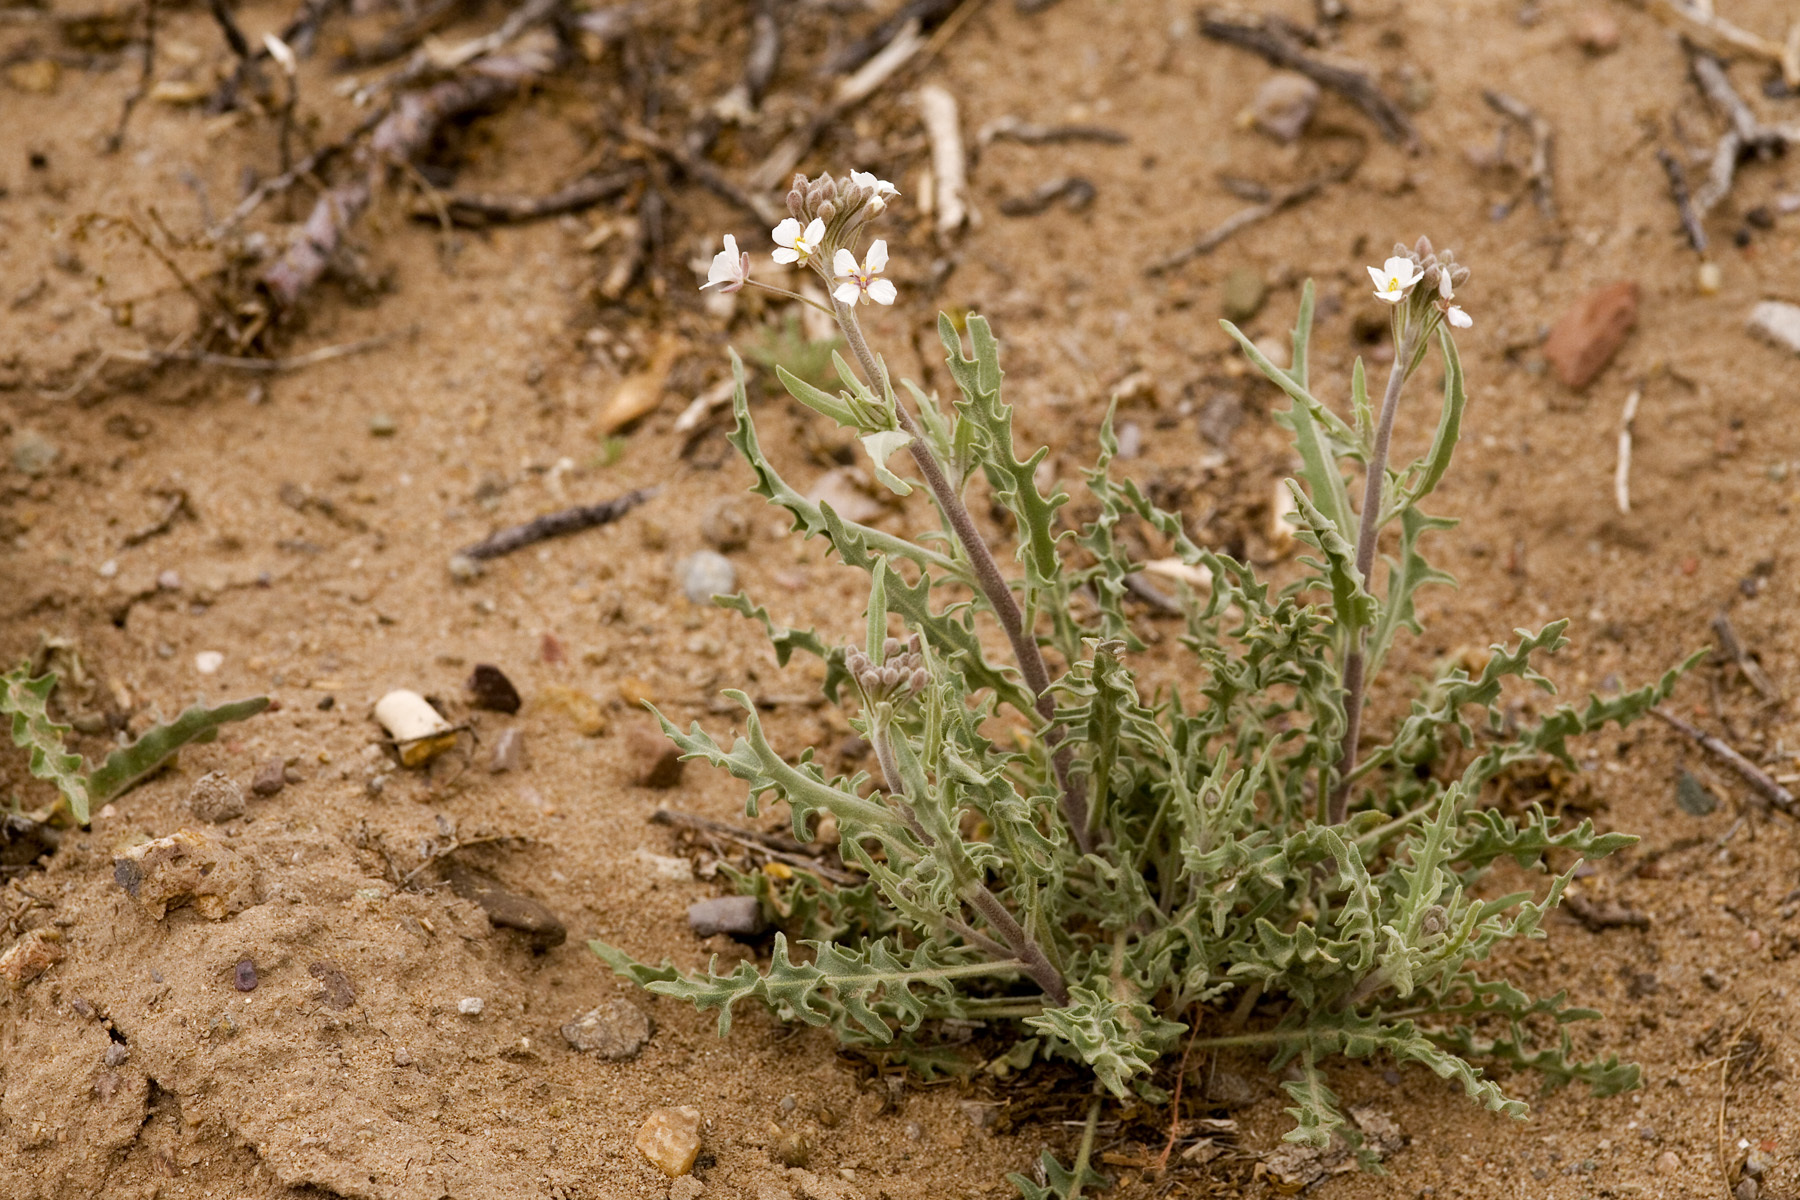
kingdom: Plantae
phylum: Tracheophyta
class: Magnoliopsida
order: Brassicales
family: Brassicaceae
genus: Dimorphocarpa
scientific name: Dimorphocarpa wislizenii
